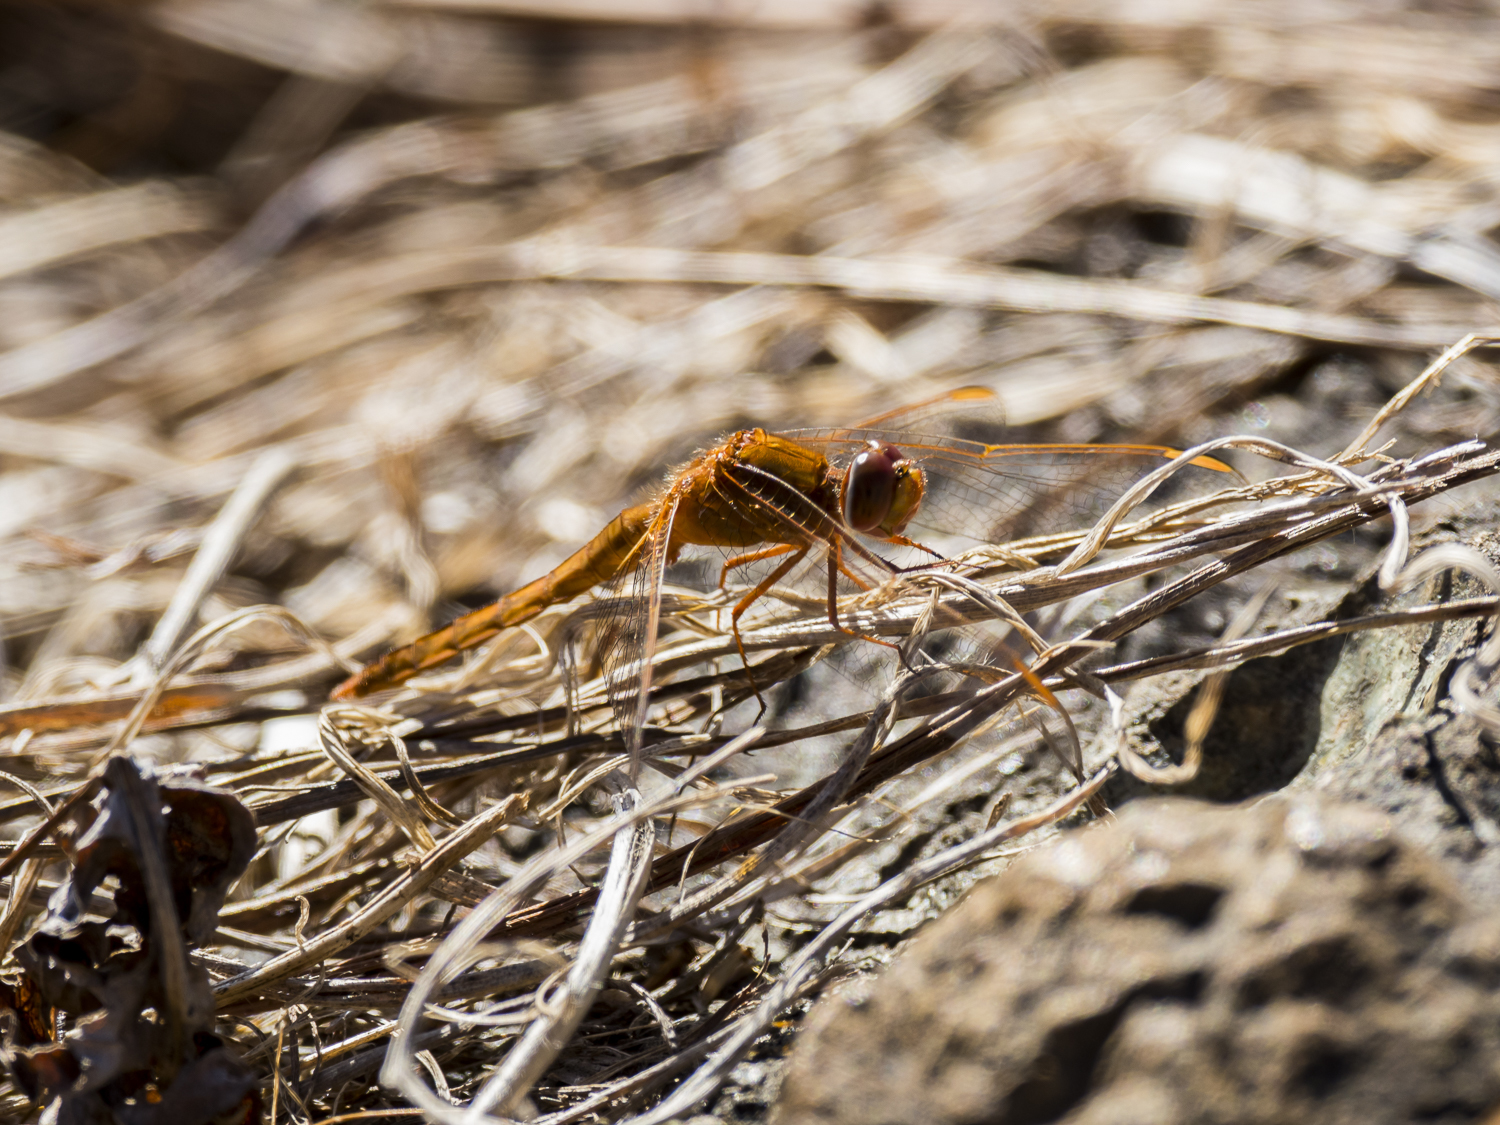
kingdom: Animalia
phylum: Arthropoda
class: Insecta
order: Odonata
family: Libellulidae
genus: Crocothemis
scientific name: Crocothemis servilia
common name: Scarlet skimmer
